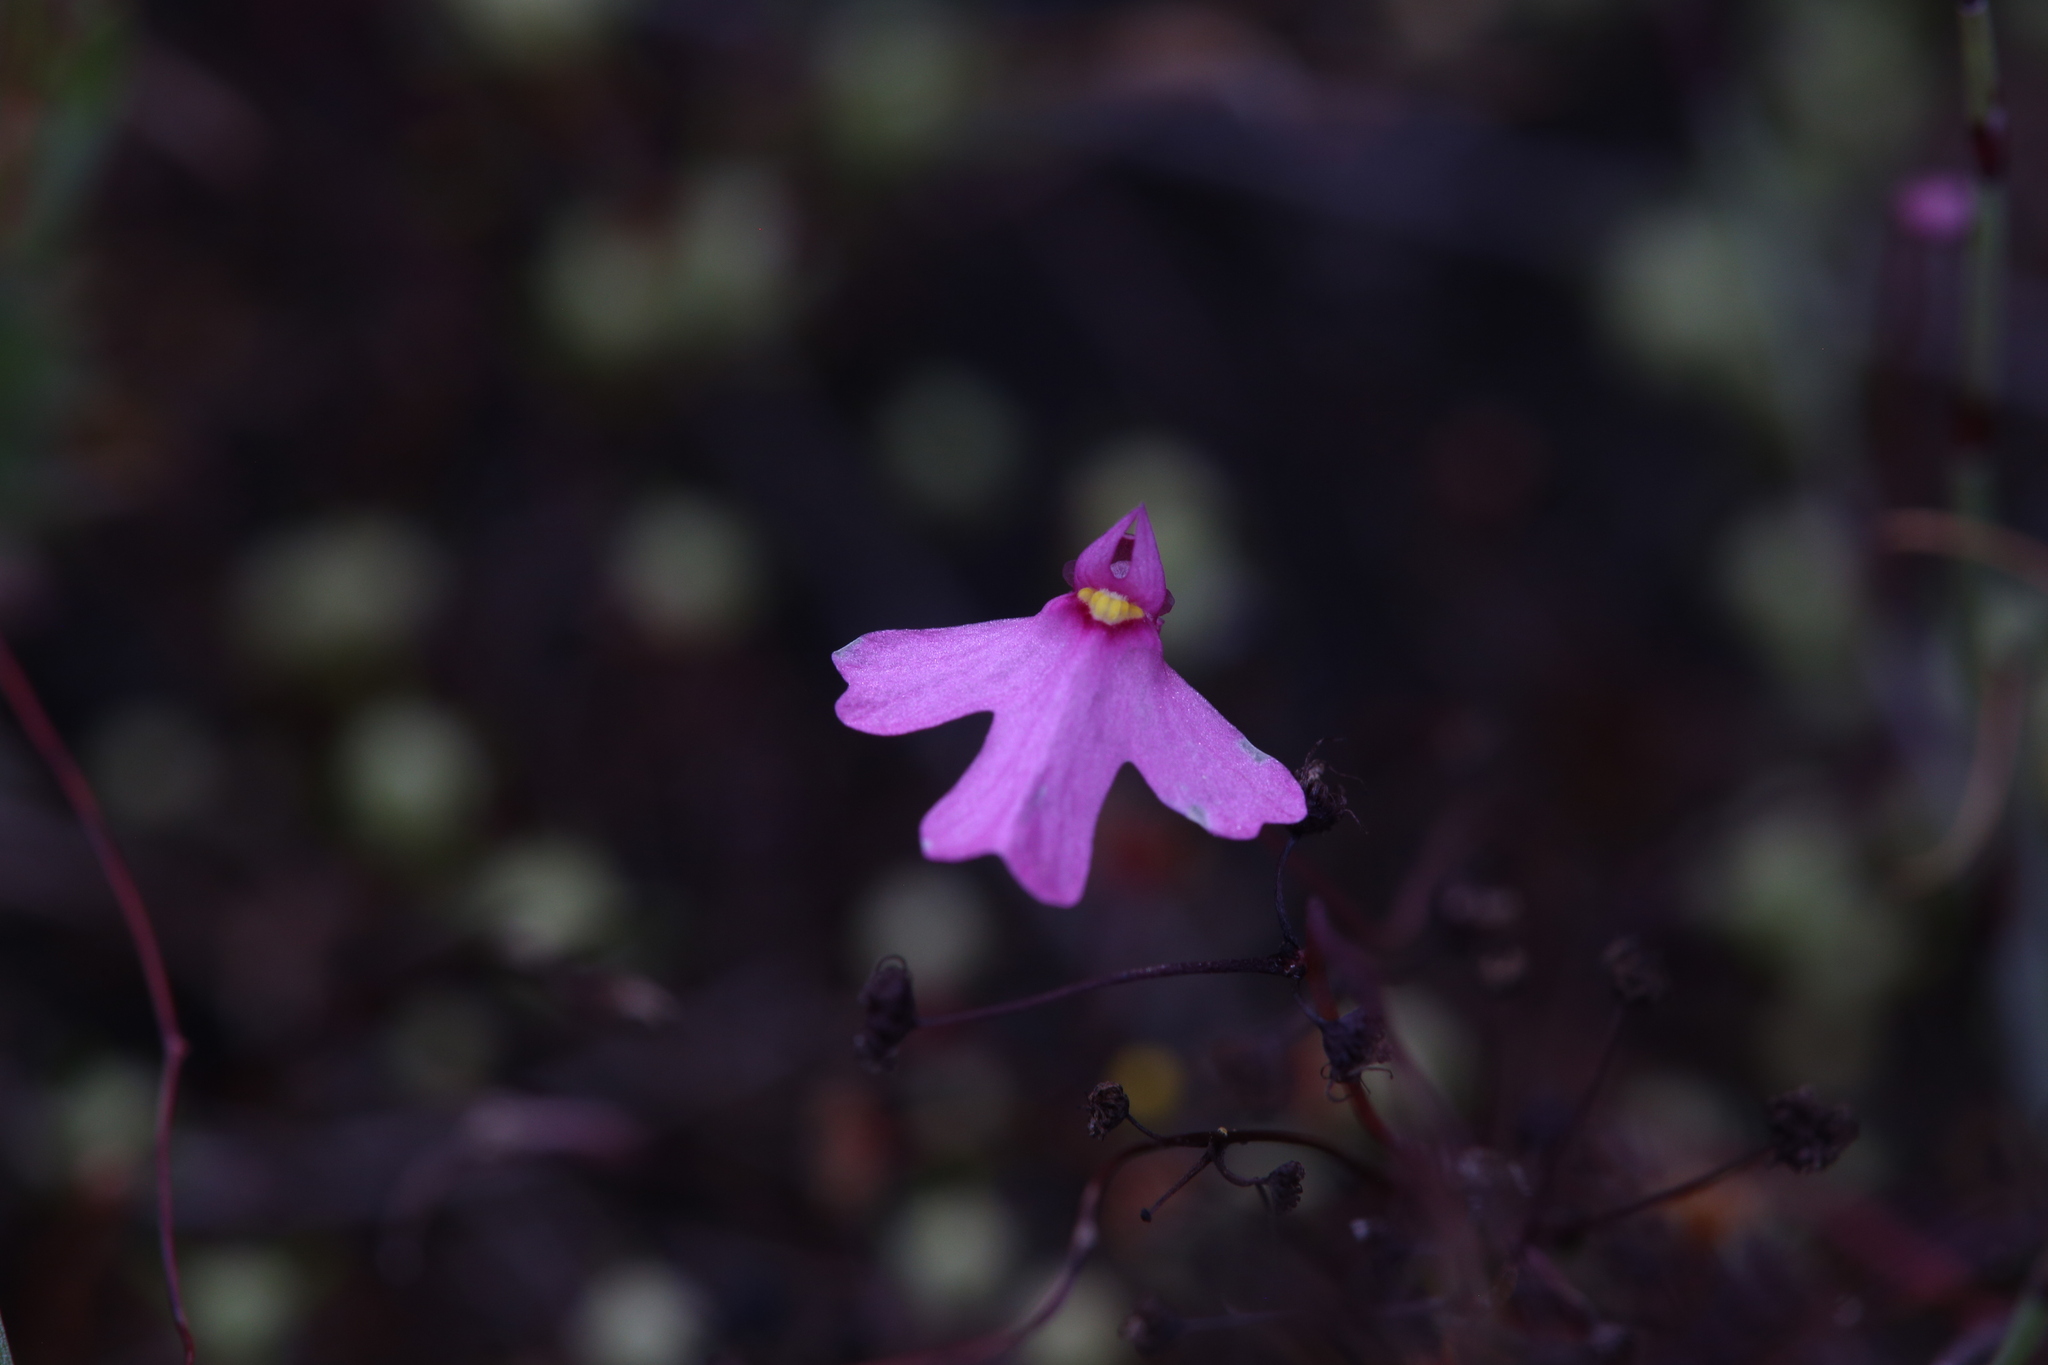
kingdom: Plantae
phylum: Tracheophyta
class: Magnoliopsida
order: Lamiales
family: Lentibulariaceae
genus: Utricularia
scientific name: Utricularia multifida
